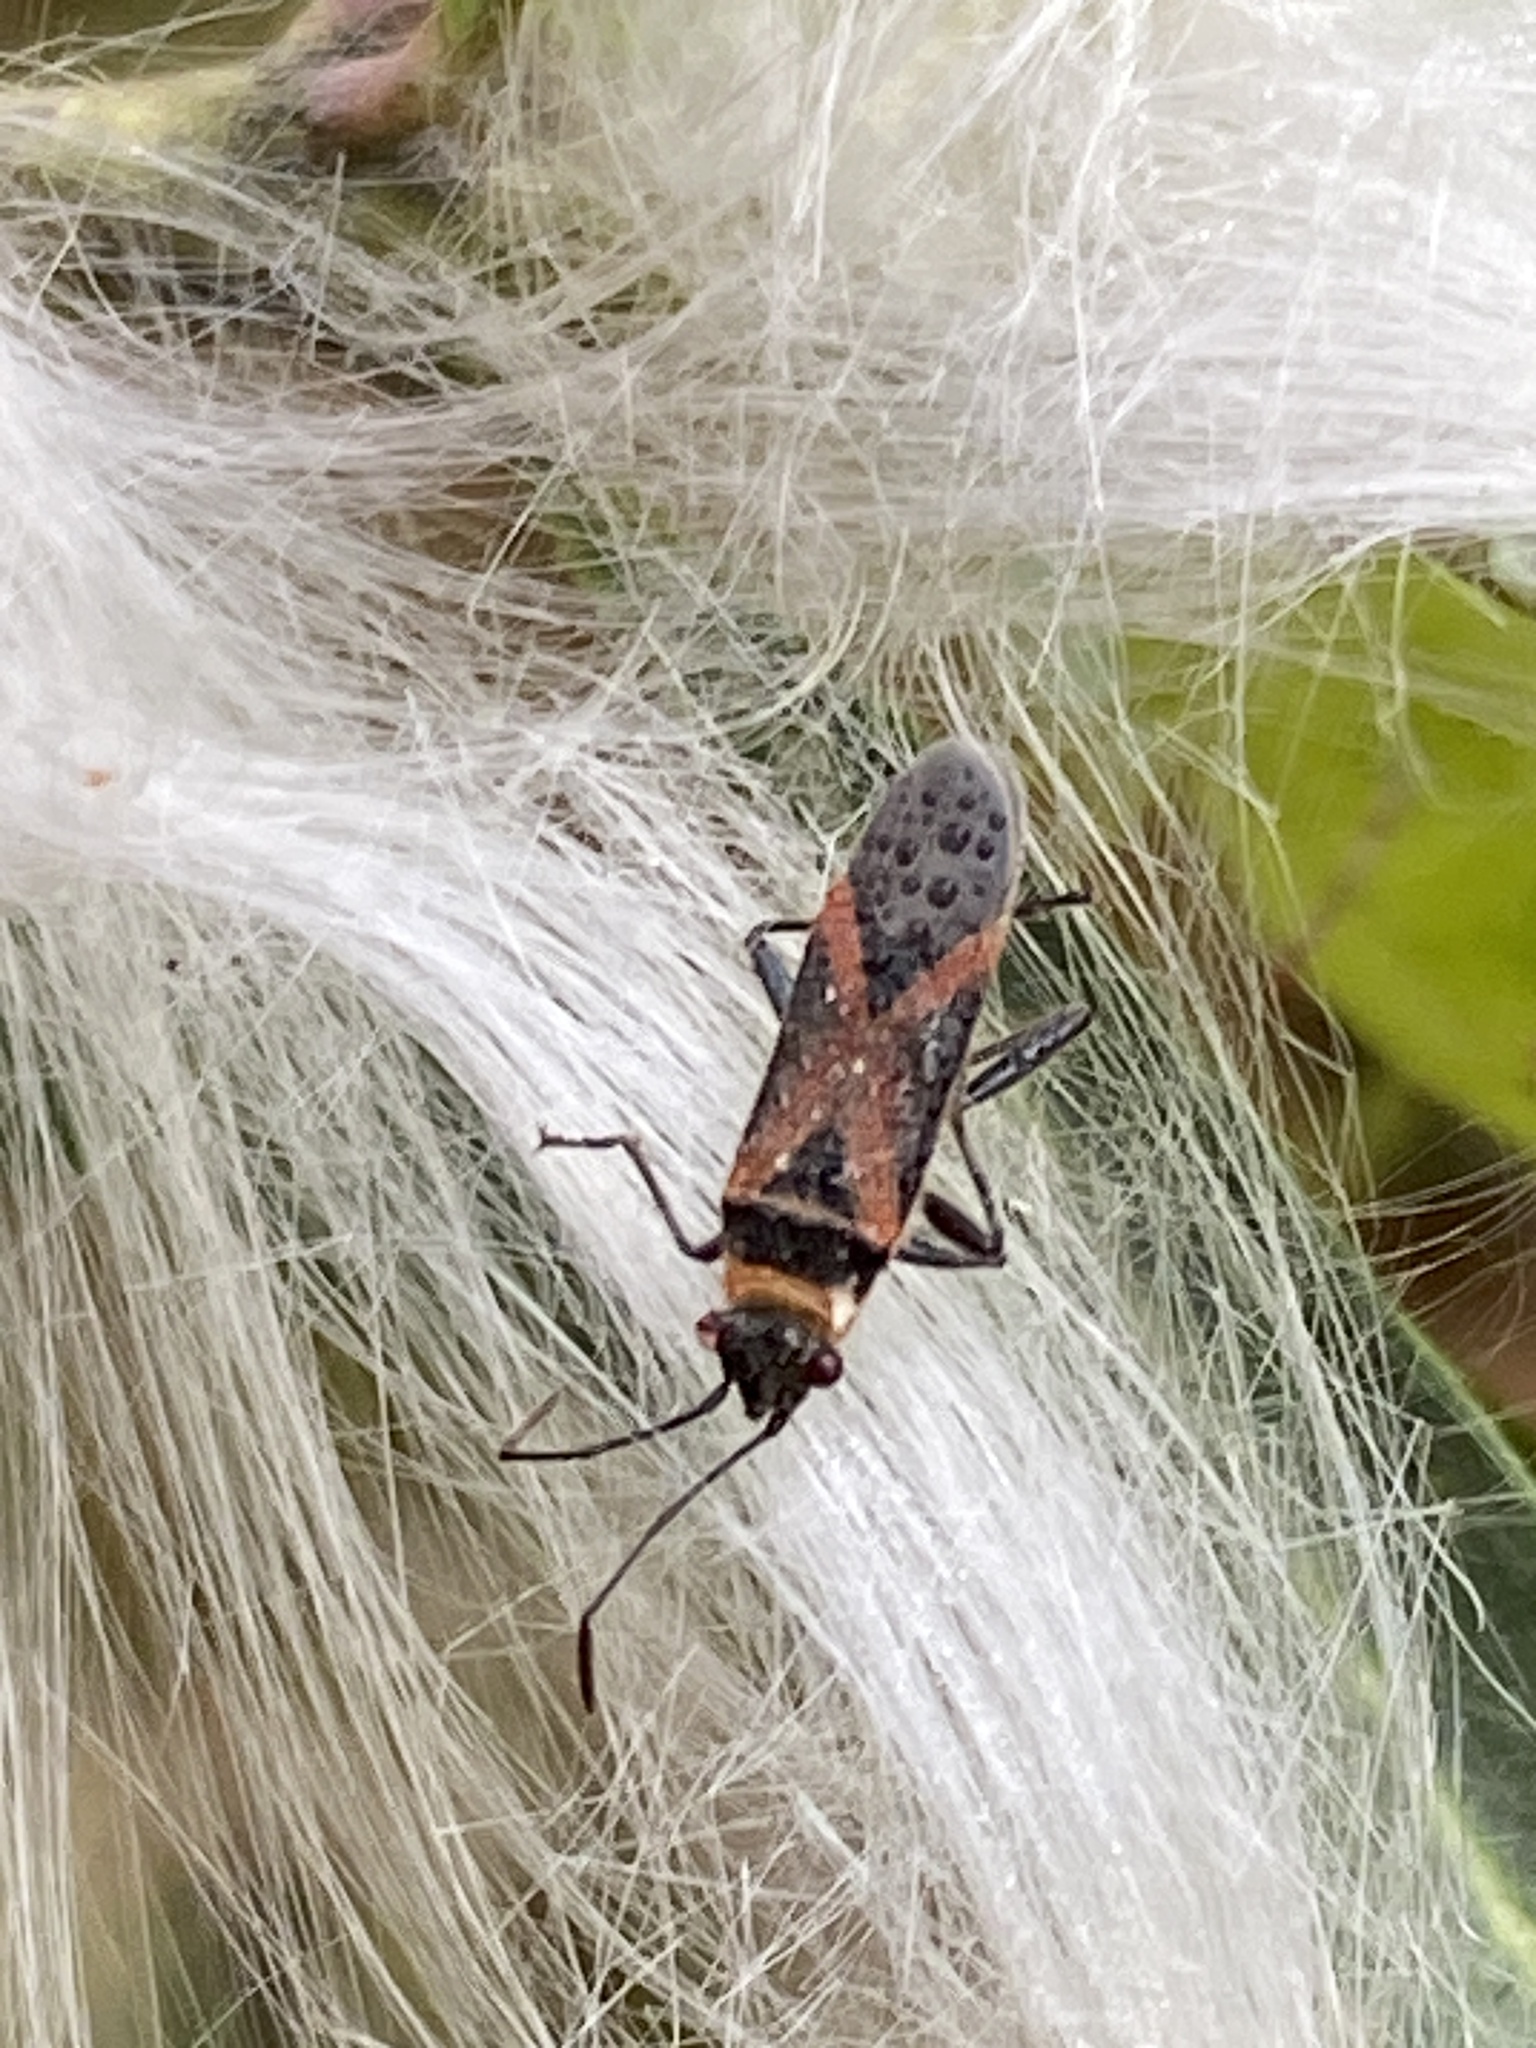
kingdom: Animalia
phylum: Arthropoda
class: Insecta
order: Hemiptera
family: Lygaeidae
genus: Arocatus
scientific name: Arocatus rusticus
